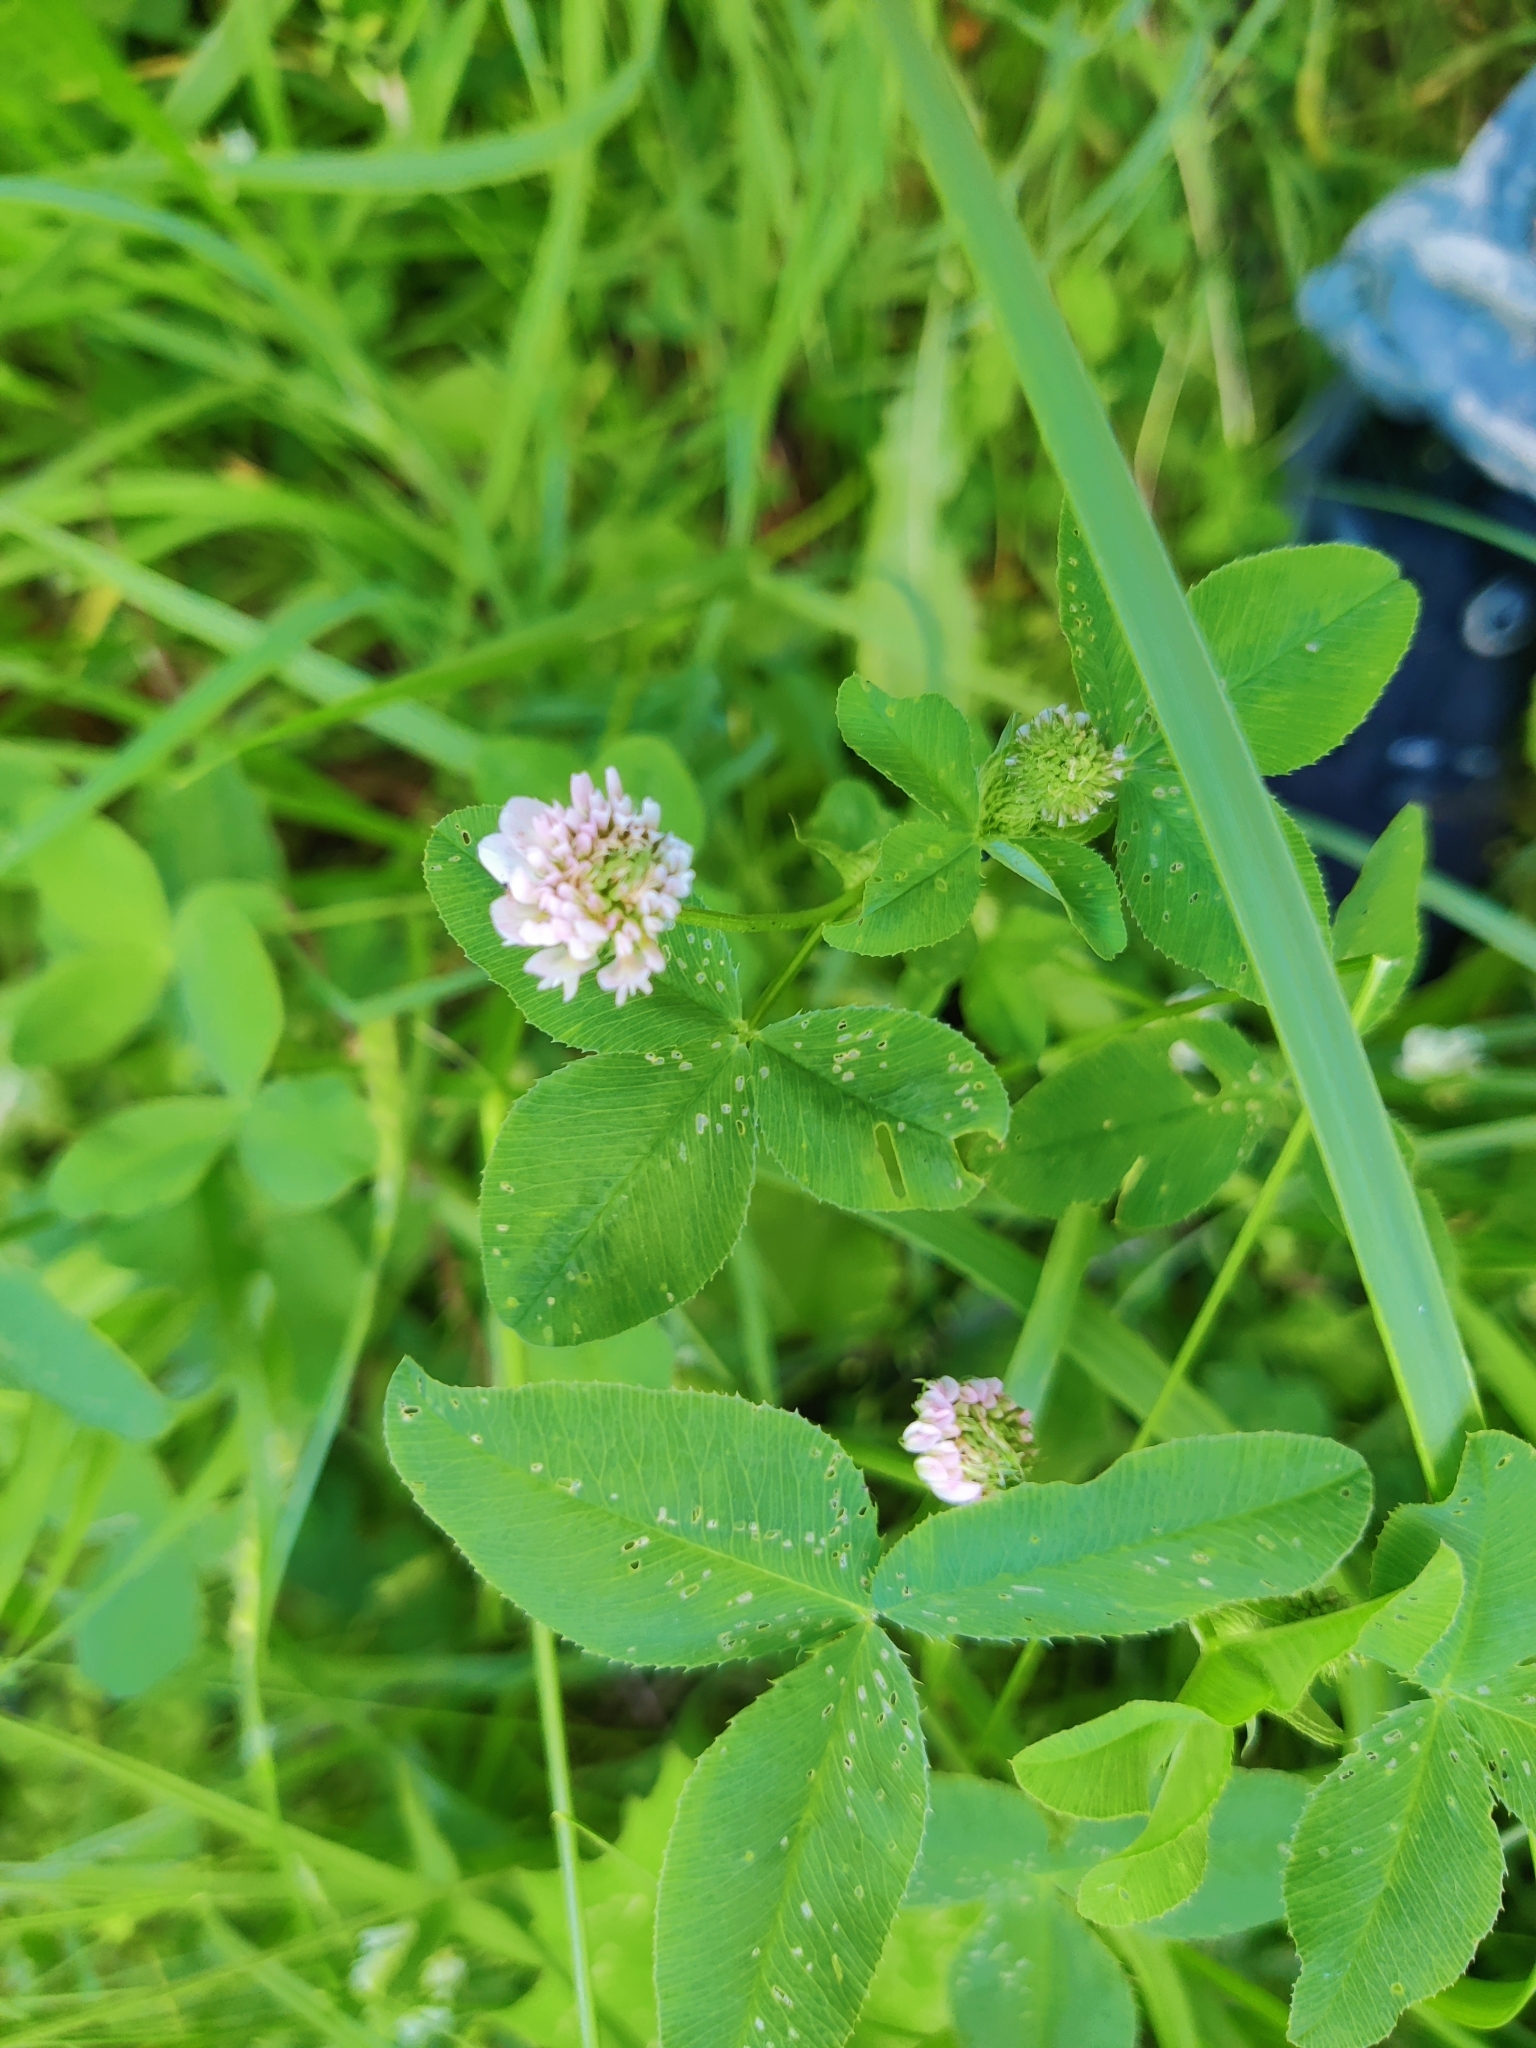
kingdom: Plantae
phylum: Tracheophyta
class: Magnoliopsida
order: Fabales
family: Fabaceae
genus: Trifolium
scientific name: Trifolium hybridum
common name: Alsike clover
